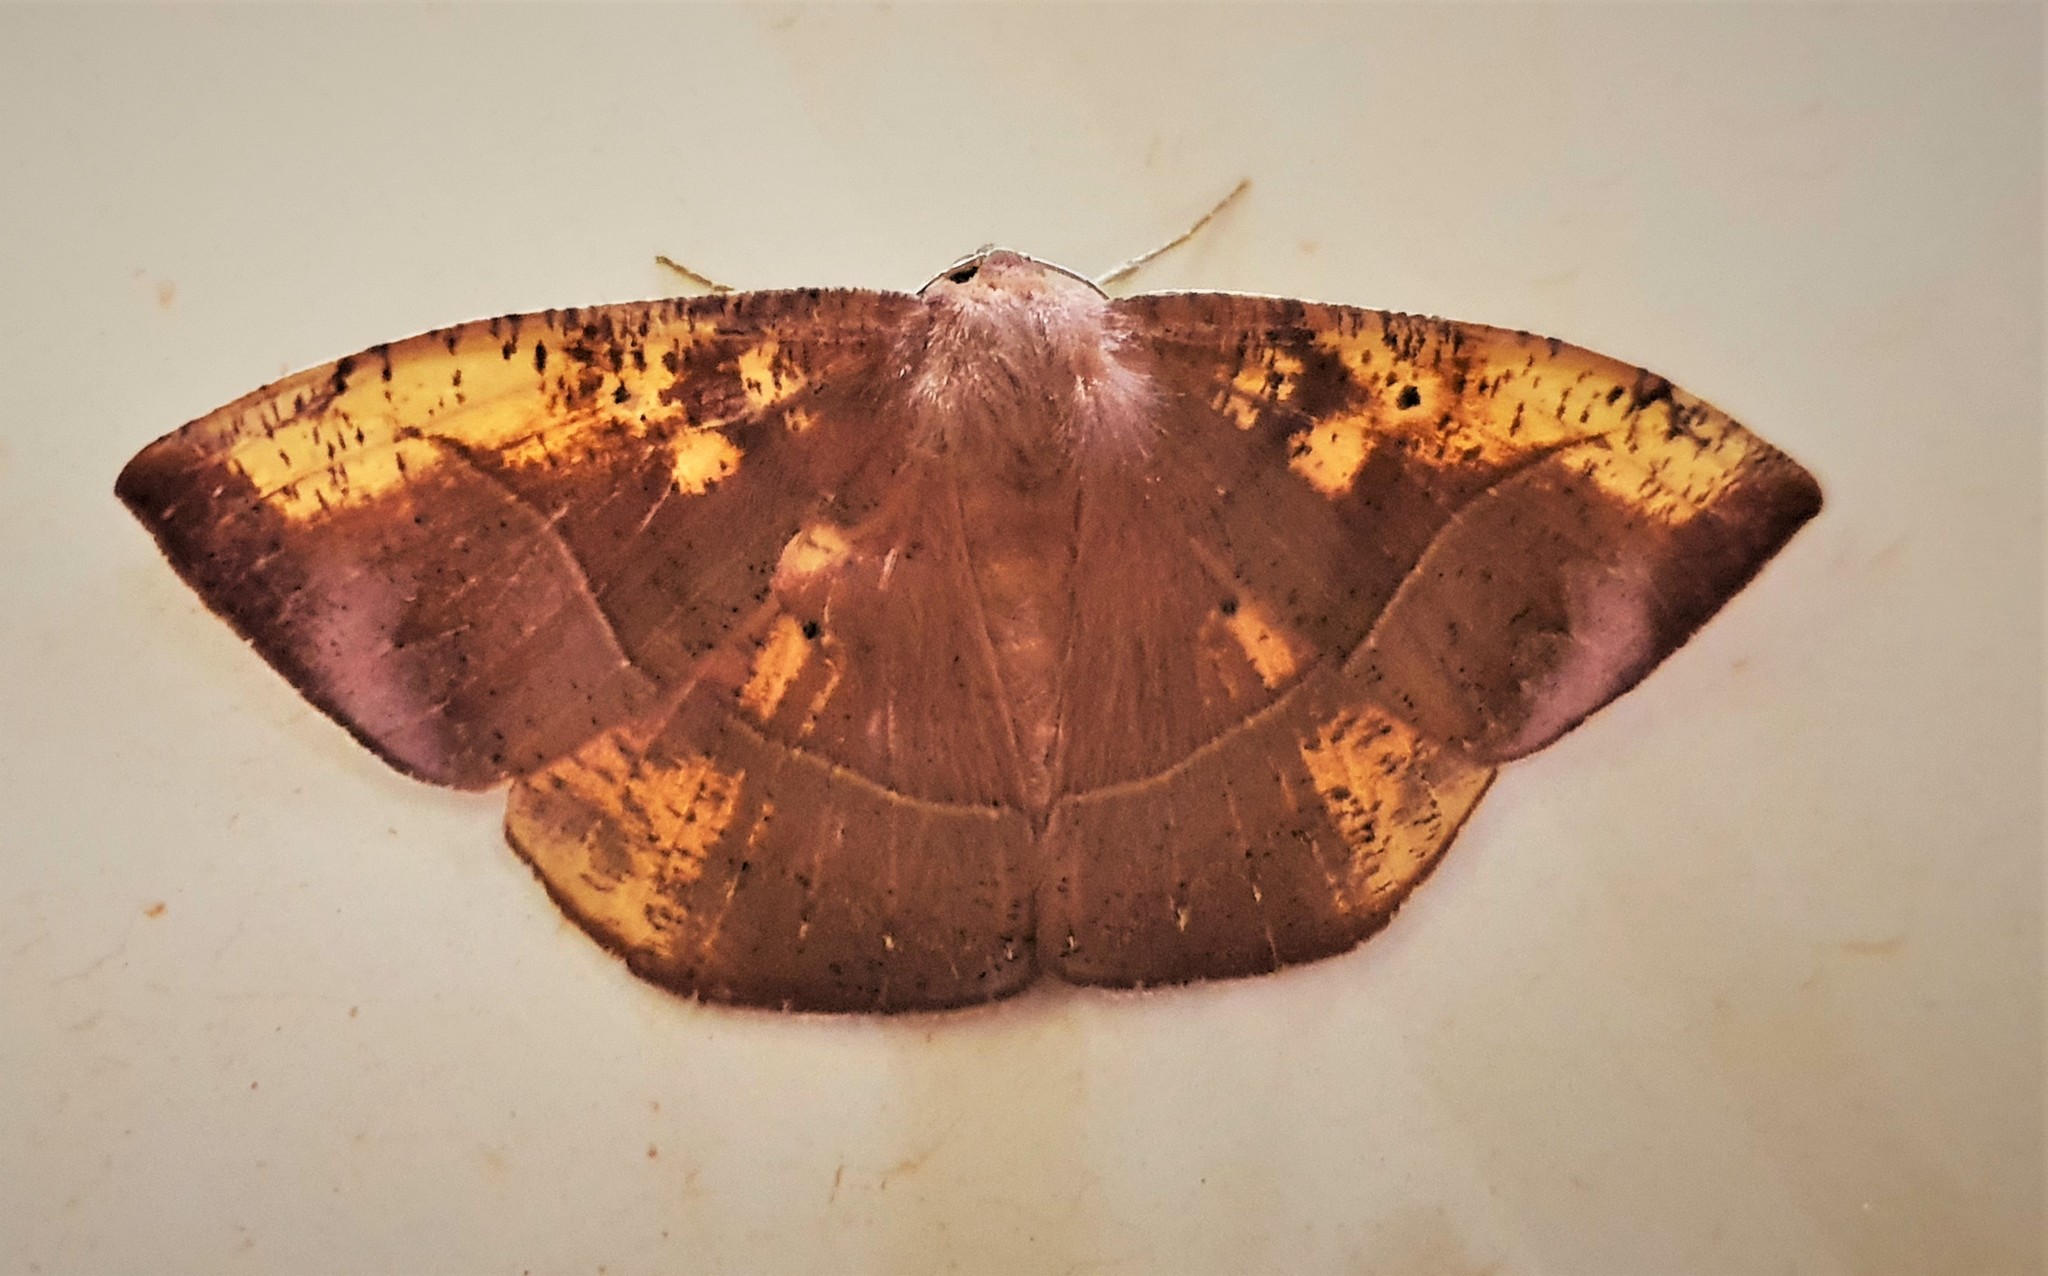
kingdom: Animalia
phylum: Arthropoda
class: Insecta
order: Lepidoptera
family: Geometridae
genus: Microgonia
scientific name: Microgonia rufaria
